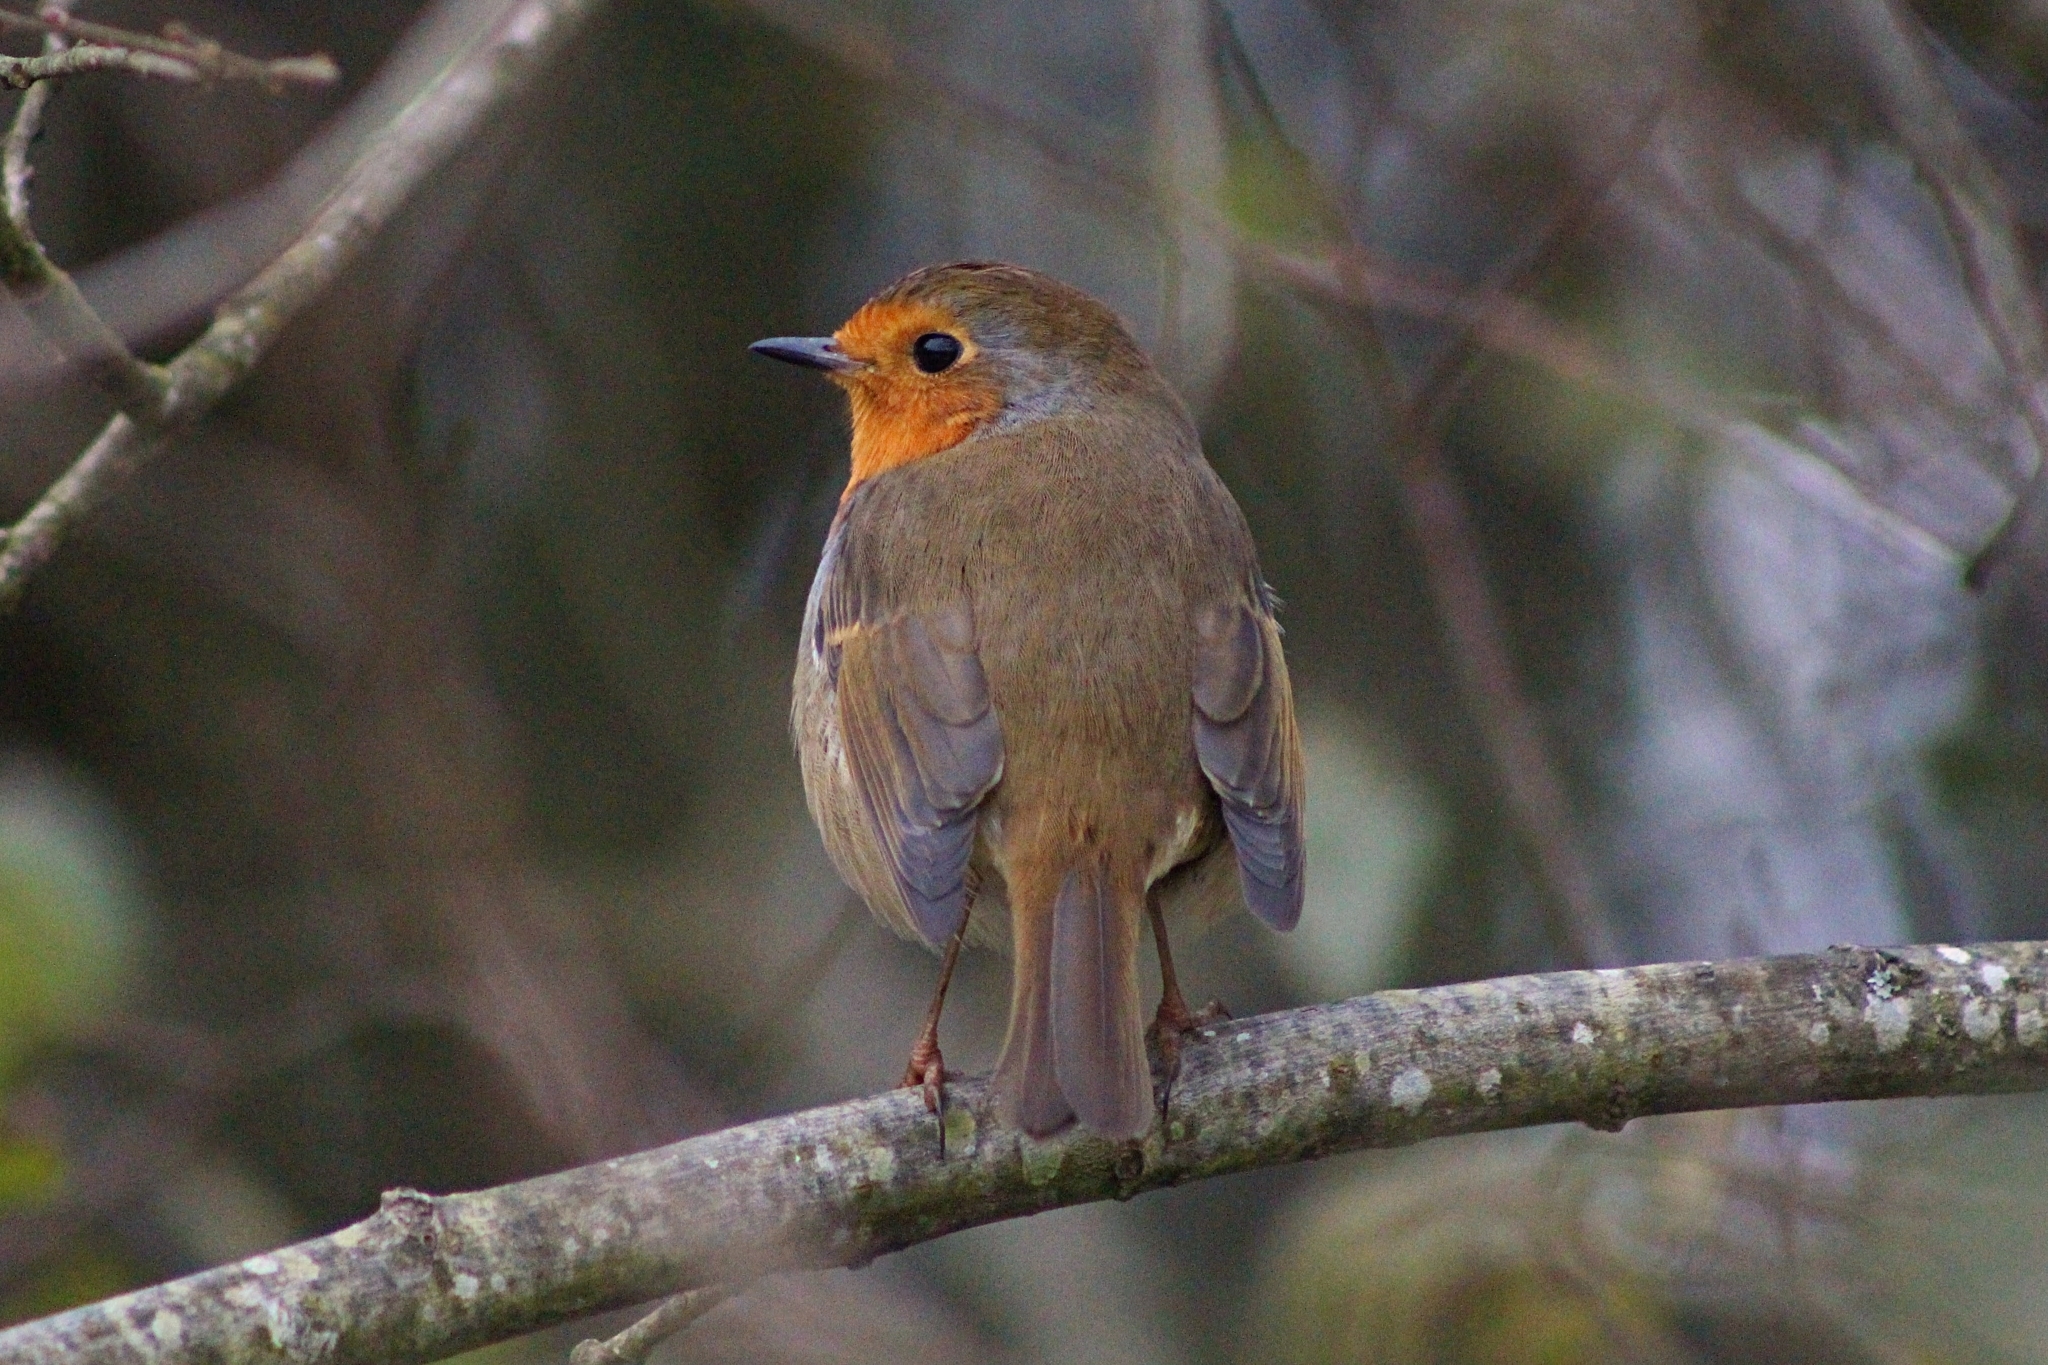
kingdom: Animalia
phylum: Chordata
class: Aves
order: Passeriformes
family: Muscicapidae
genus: Erithacus
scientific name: Erithacus rubecula
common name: European robin
